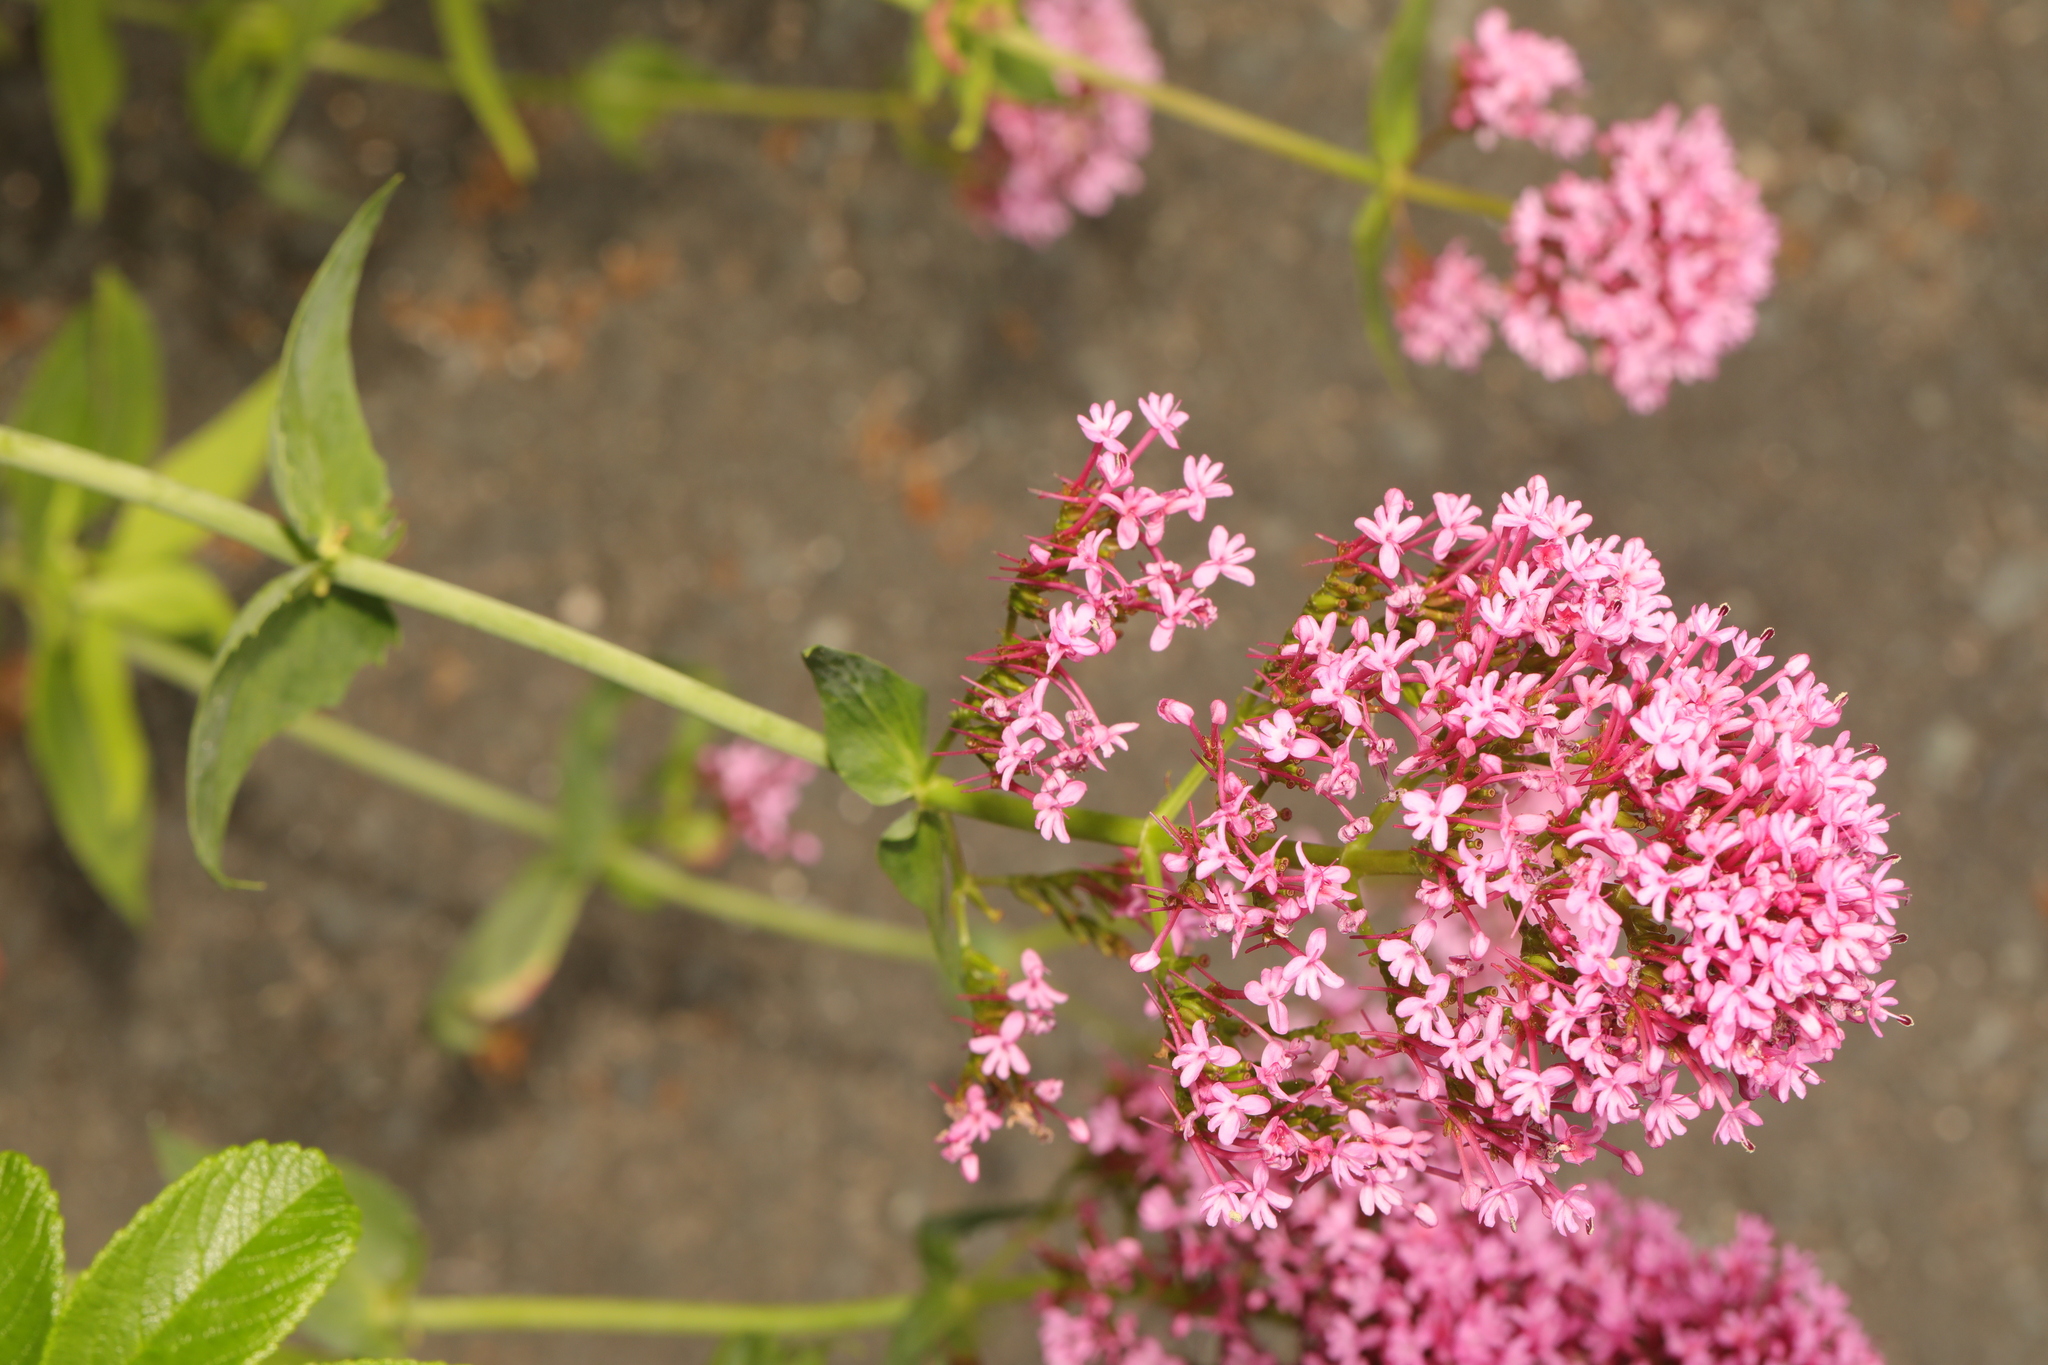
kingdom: Plantae
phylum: Tracheophyta
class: Magnoliopsida
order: Dipsacales
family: Caprifoliaceae
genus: Centranthus
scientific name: Centranthus ruber
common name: Red valerian
